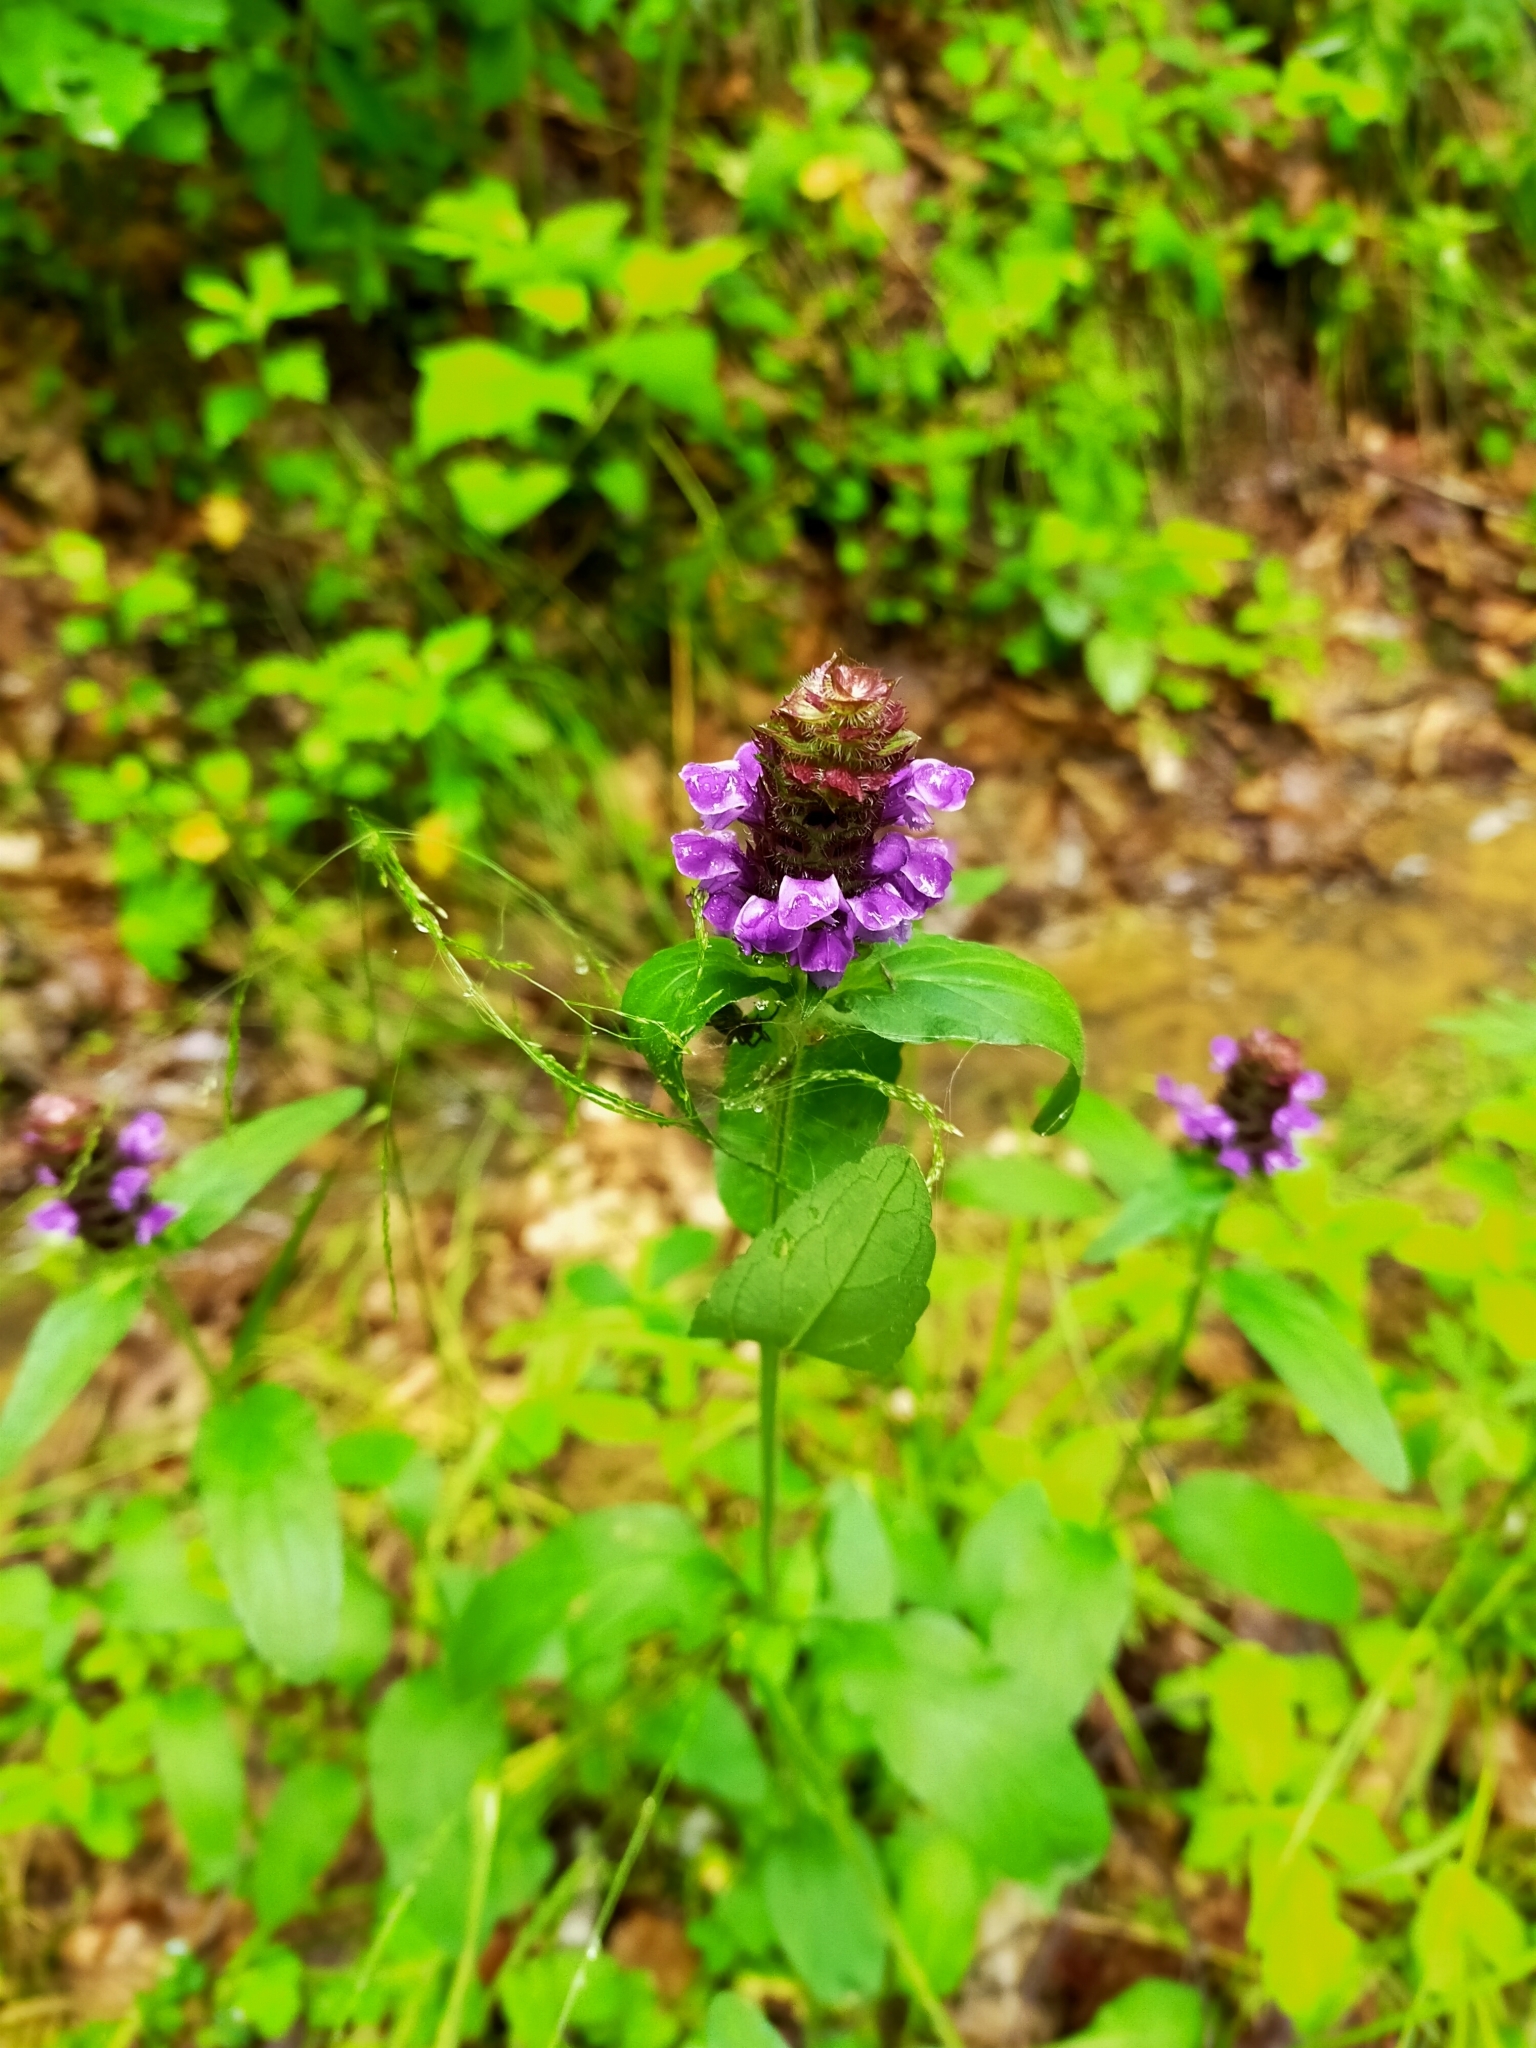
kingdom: Plantae
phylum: Tracheophyta
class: Magnoliopsida
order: Lamiales
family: Lamiaceae
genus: Prunella
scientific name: Prunella vulgaris
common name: Heal-all
